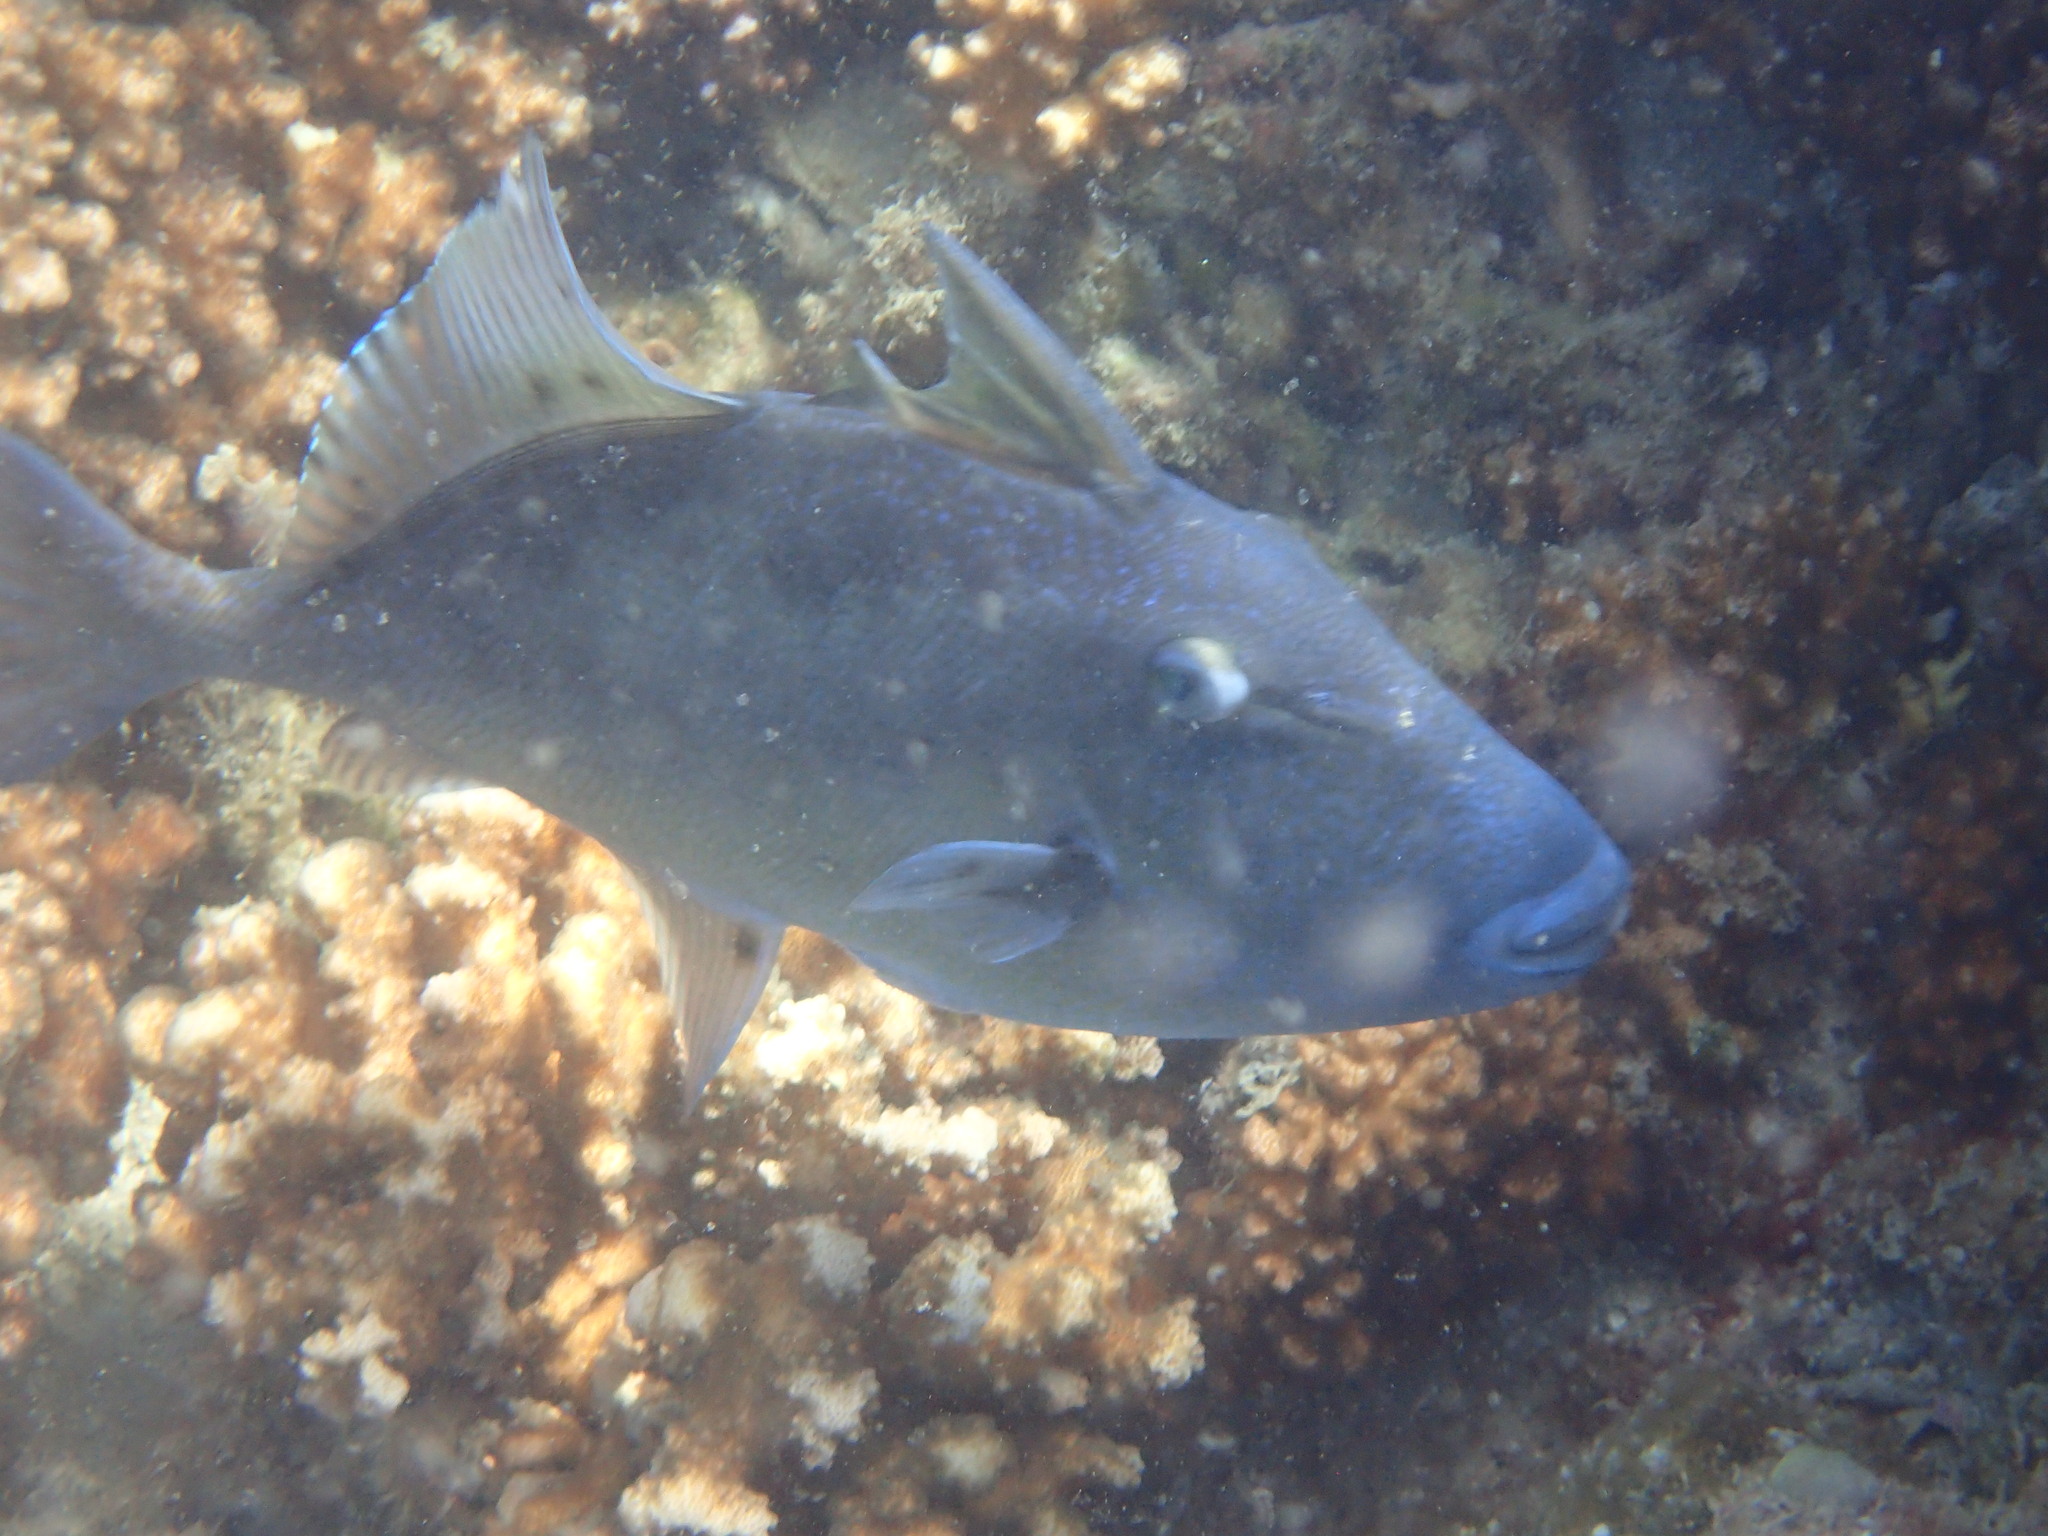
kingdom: Animalia
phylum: Chordata
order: Tetraodontiformes
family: Balistidae
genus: Balistes
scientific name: Balistes polylepis
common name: Finescale triggerfish
